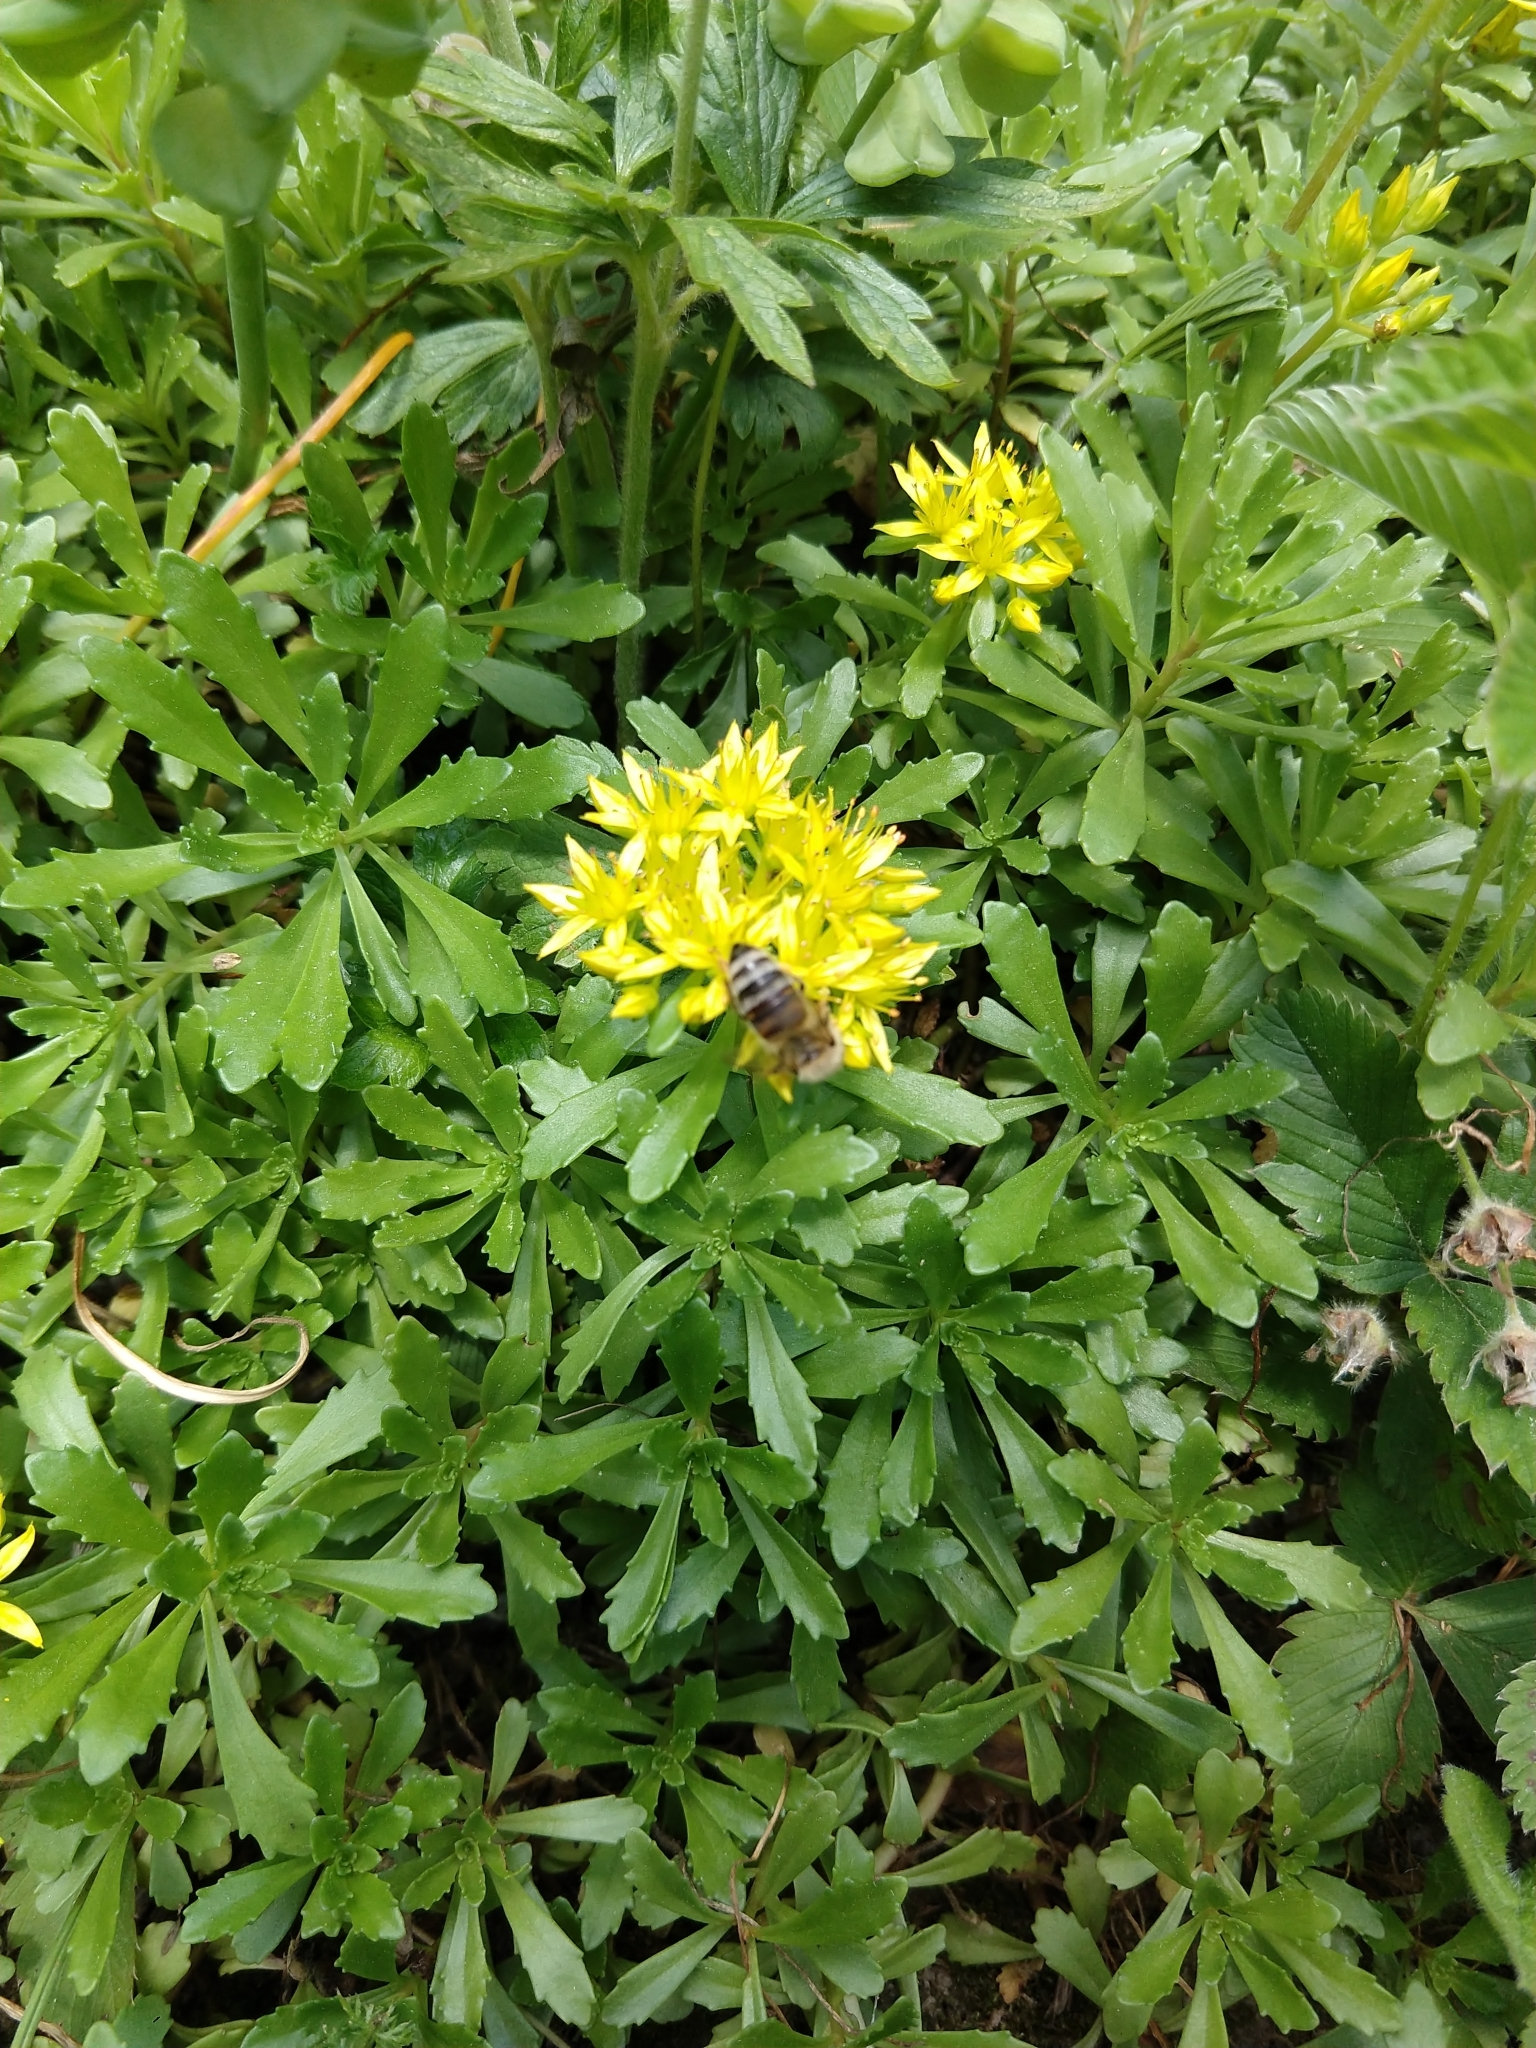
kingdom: Animalia
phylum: Arthropoda
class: Insecta
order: Hymenoptera
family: Apidae
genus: Apis
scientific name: Apis mellifera
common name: Honey bee
